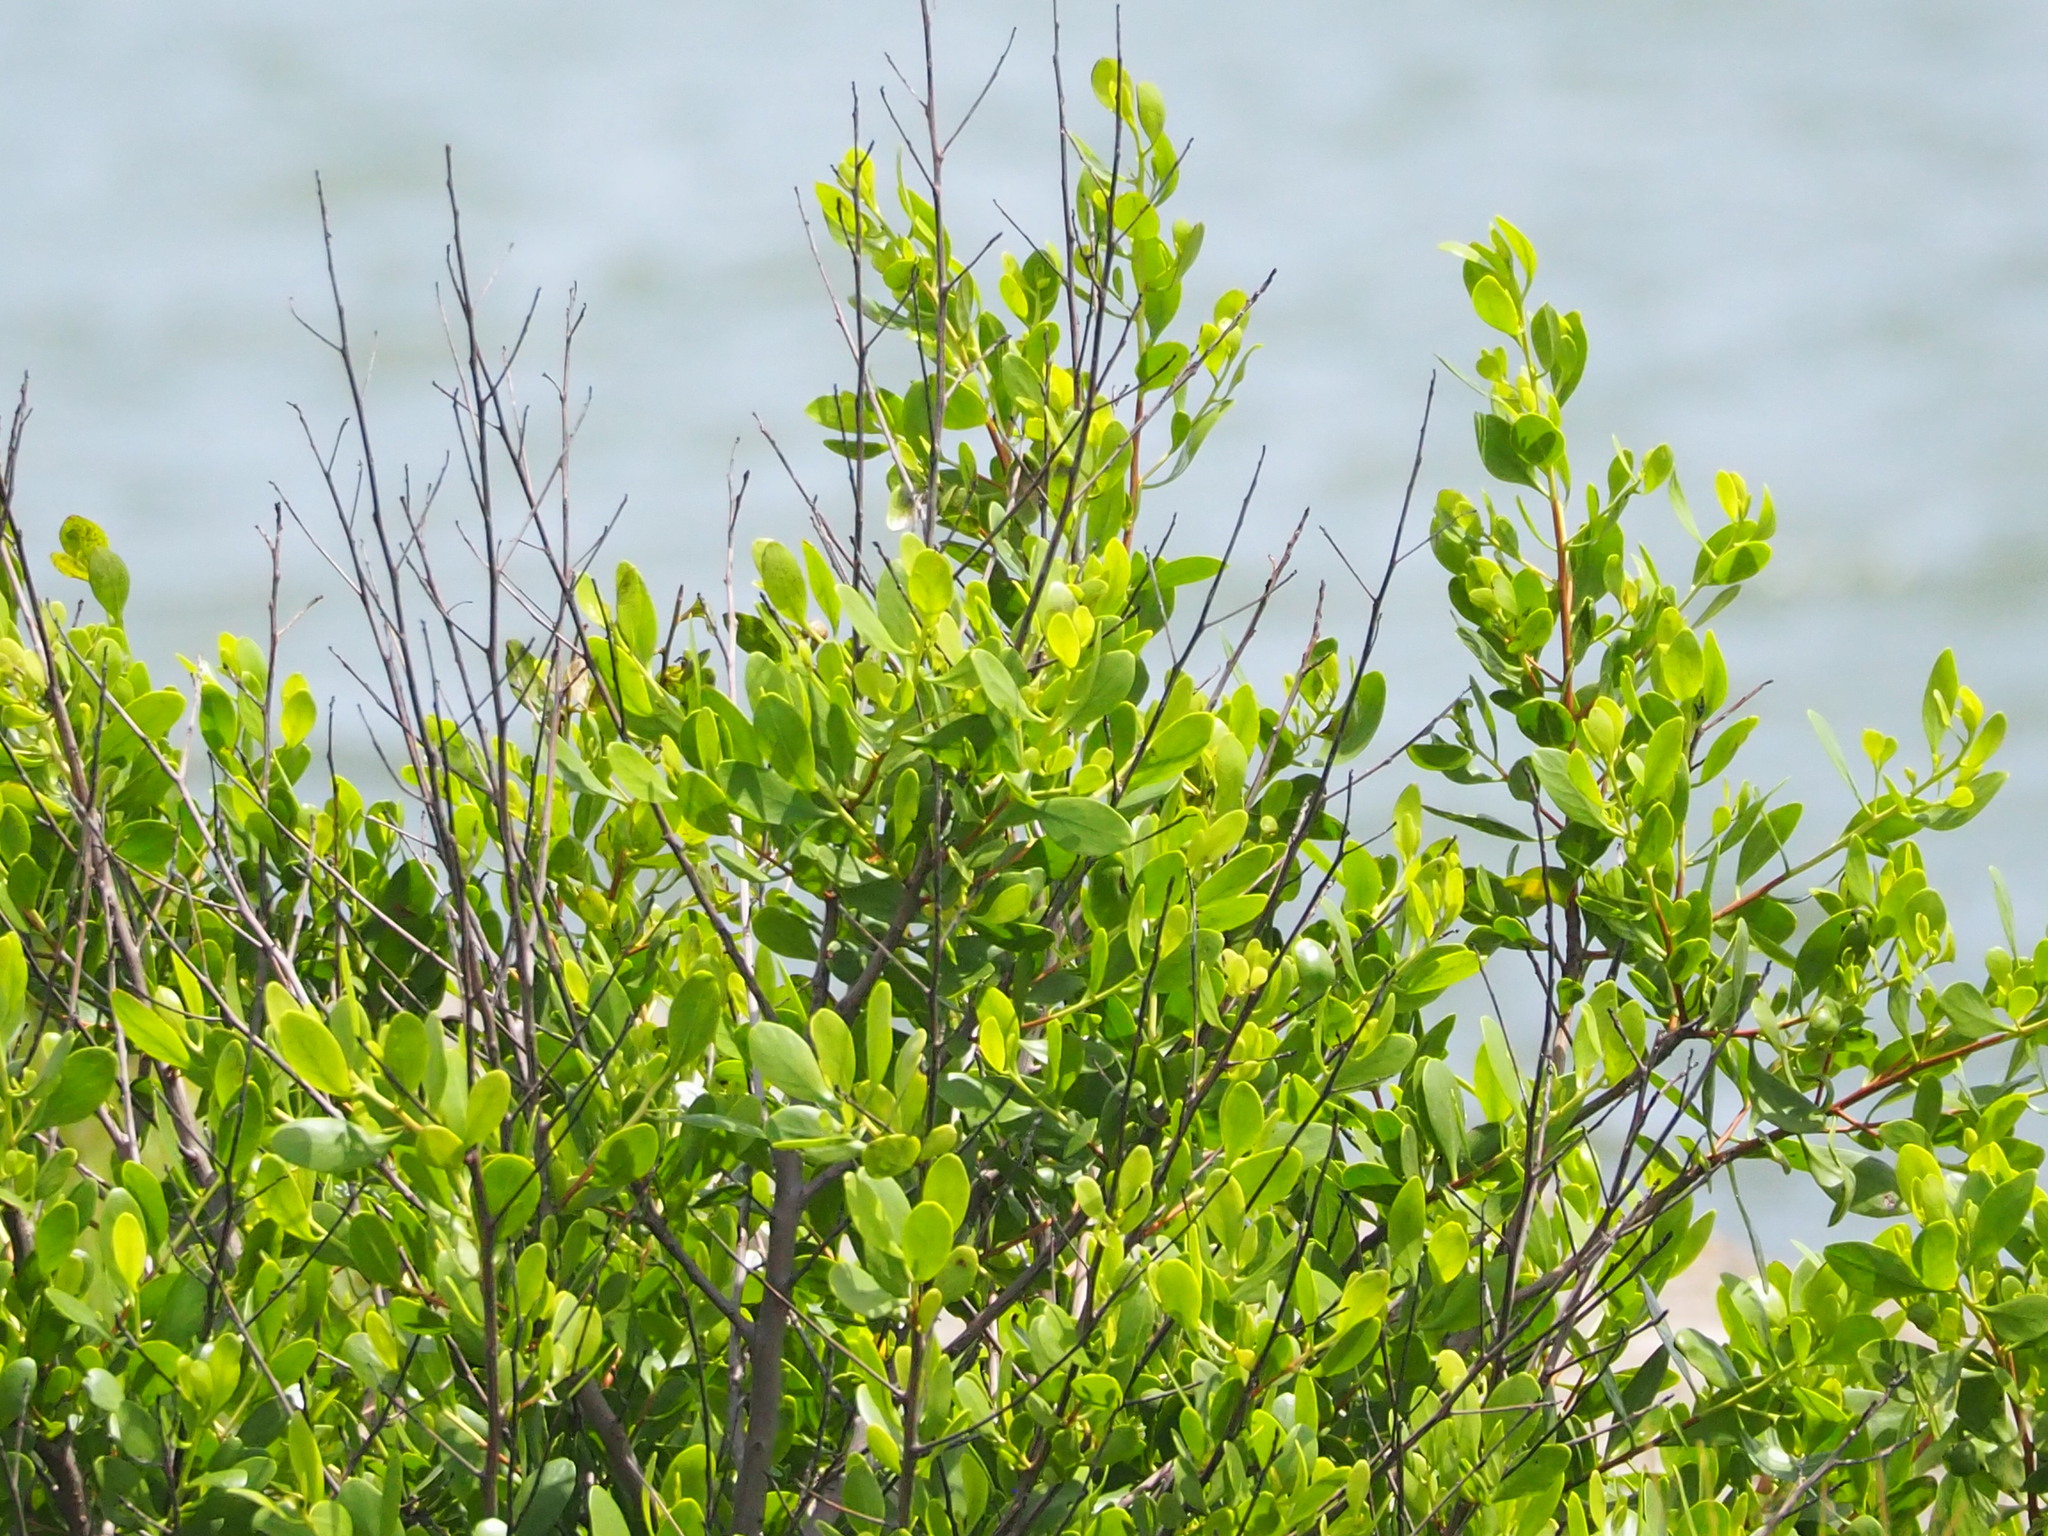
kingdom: Plantae
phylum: Tracheophyta
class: Magnoliopsida
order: Myrtales
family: Combretaceae
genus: Lumnitzera
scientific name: Lumnitzera racemosa
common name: White-flowered black mangrove
